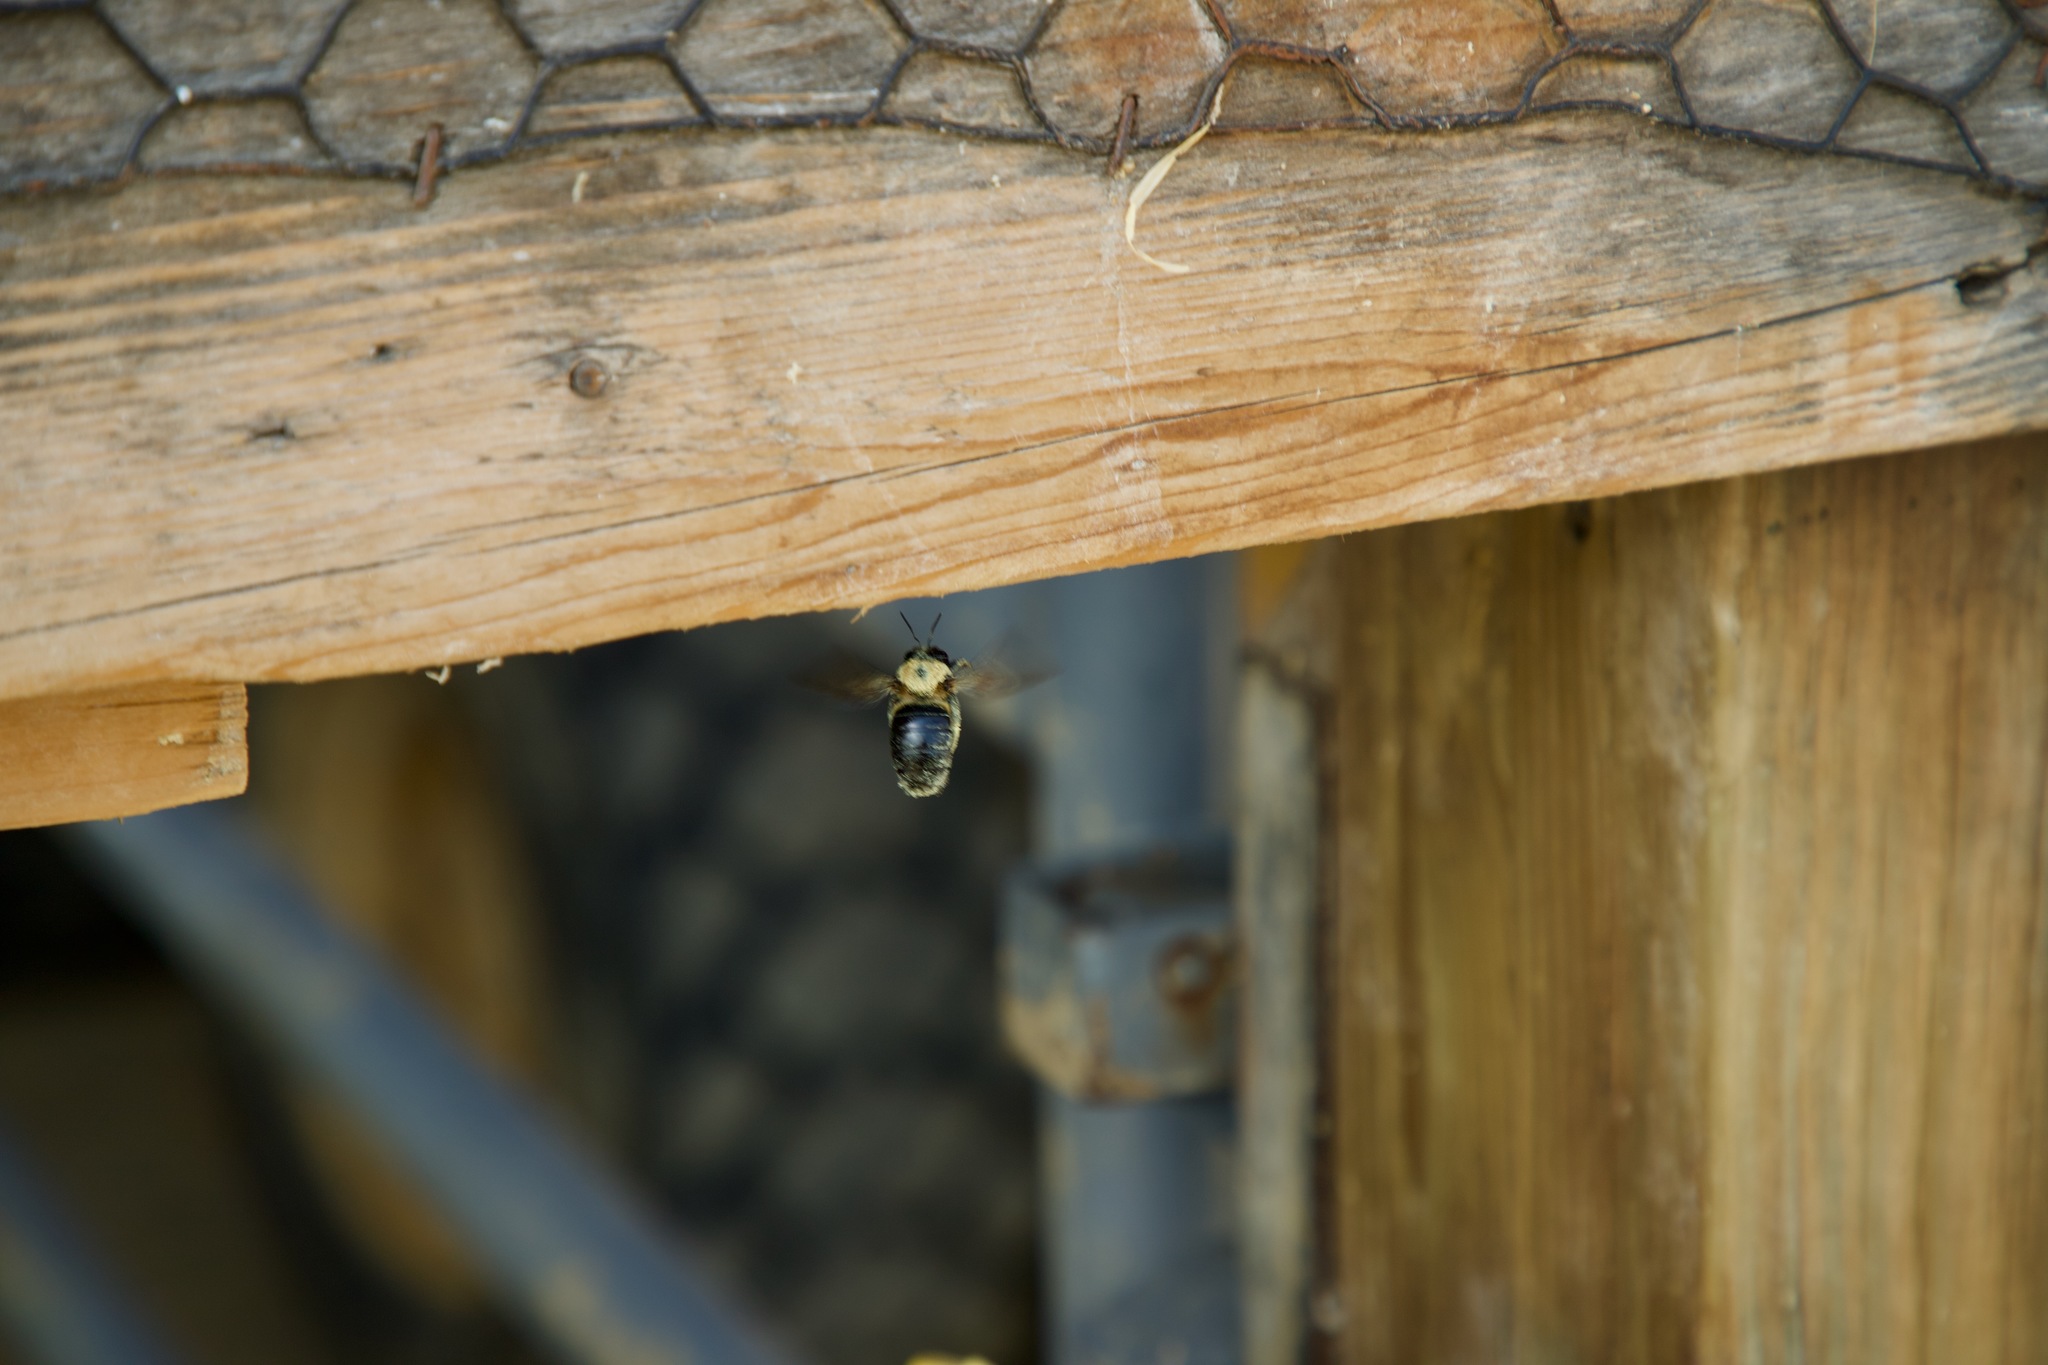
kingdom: Animalia
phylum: Arthropoda
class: Insecta
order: Hymenoptera
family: Apidae
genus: Xylocopa
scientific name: Xylocopa virginica
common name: Carpenter bee
